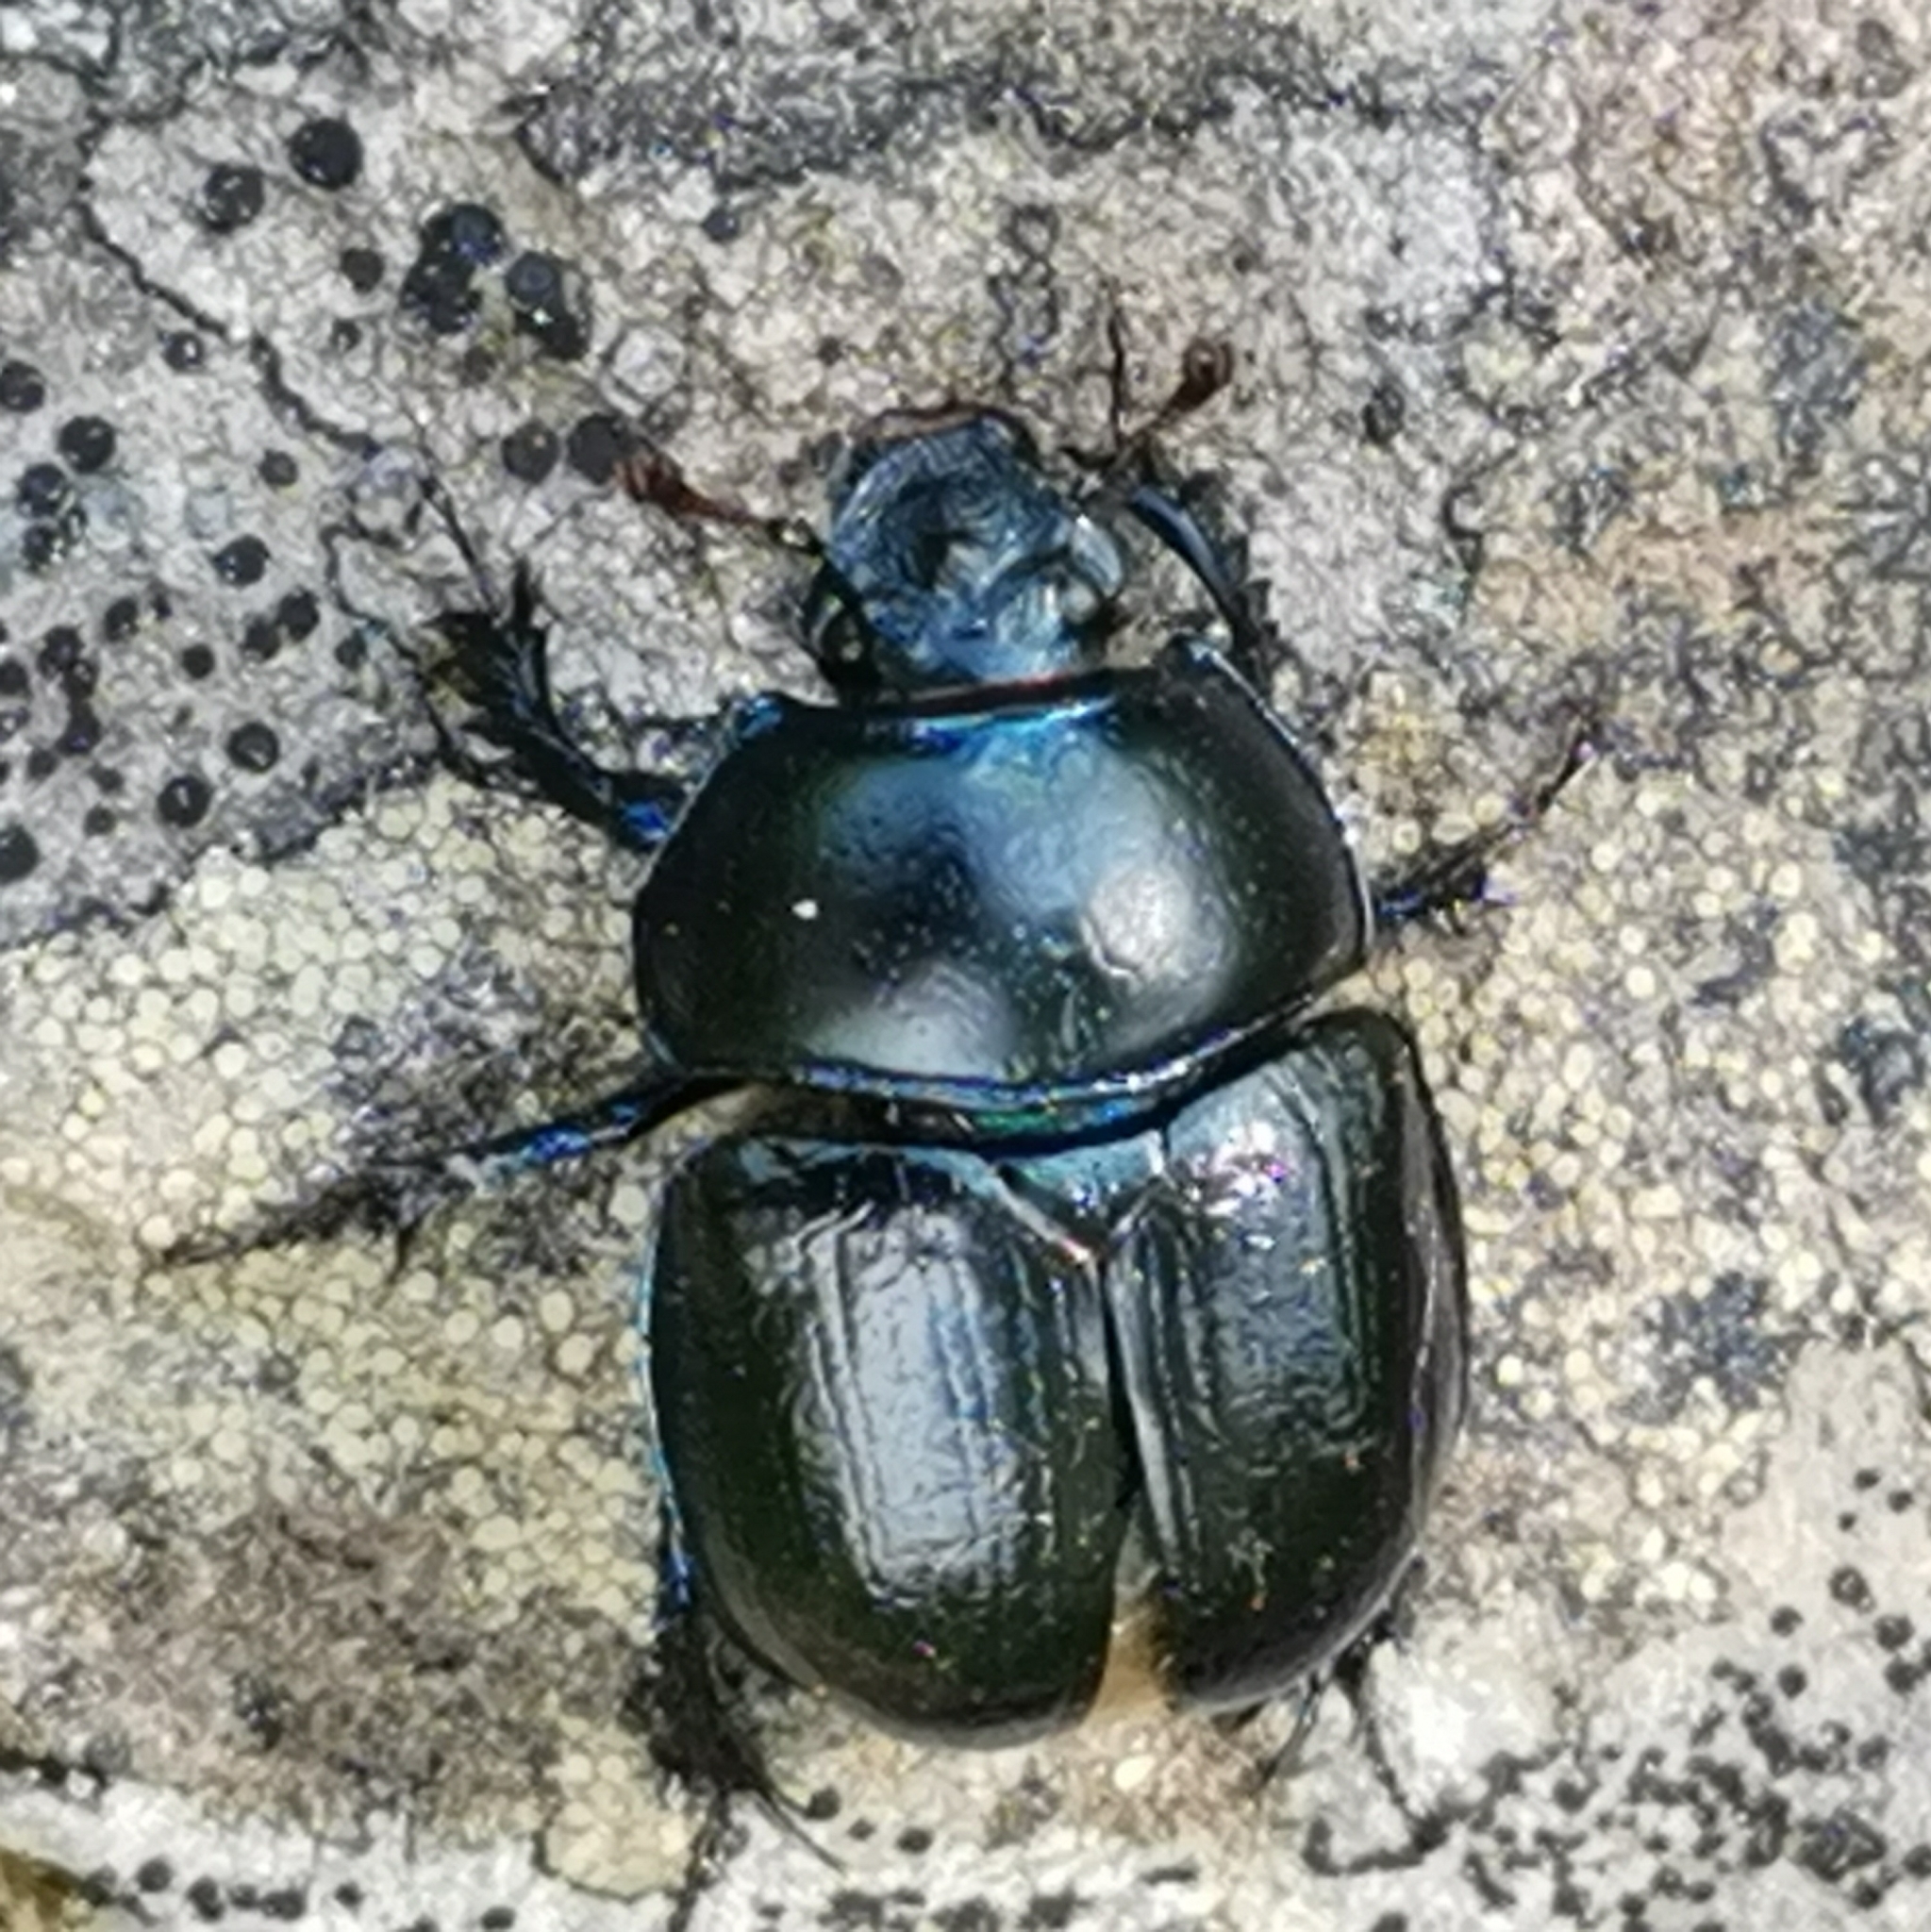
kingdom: Animalia
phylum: Arthropoda
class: Insecta
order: Coleoptera
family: Geotrupidae
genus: Anoplotrupes
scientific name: Anoplotrupes stercorosus
